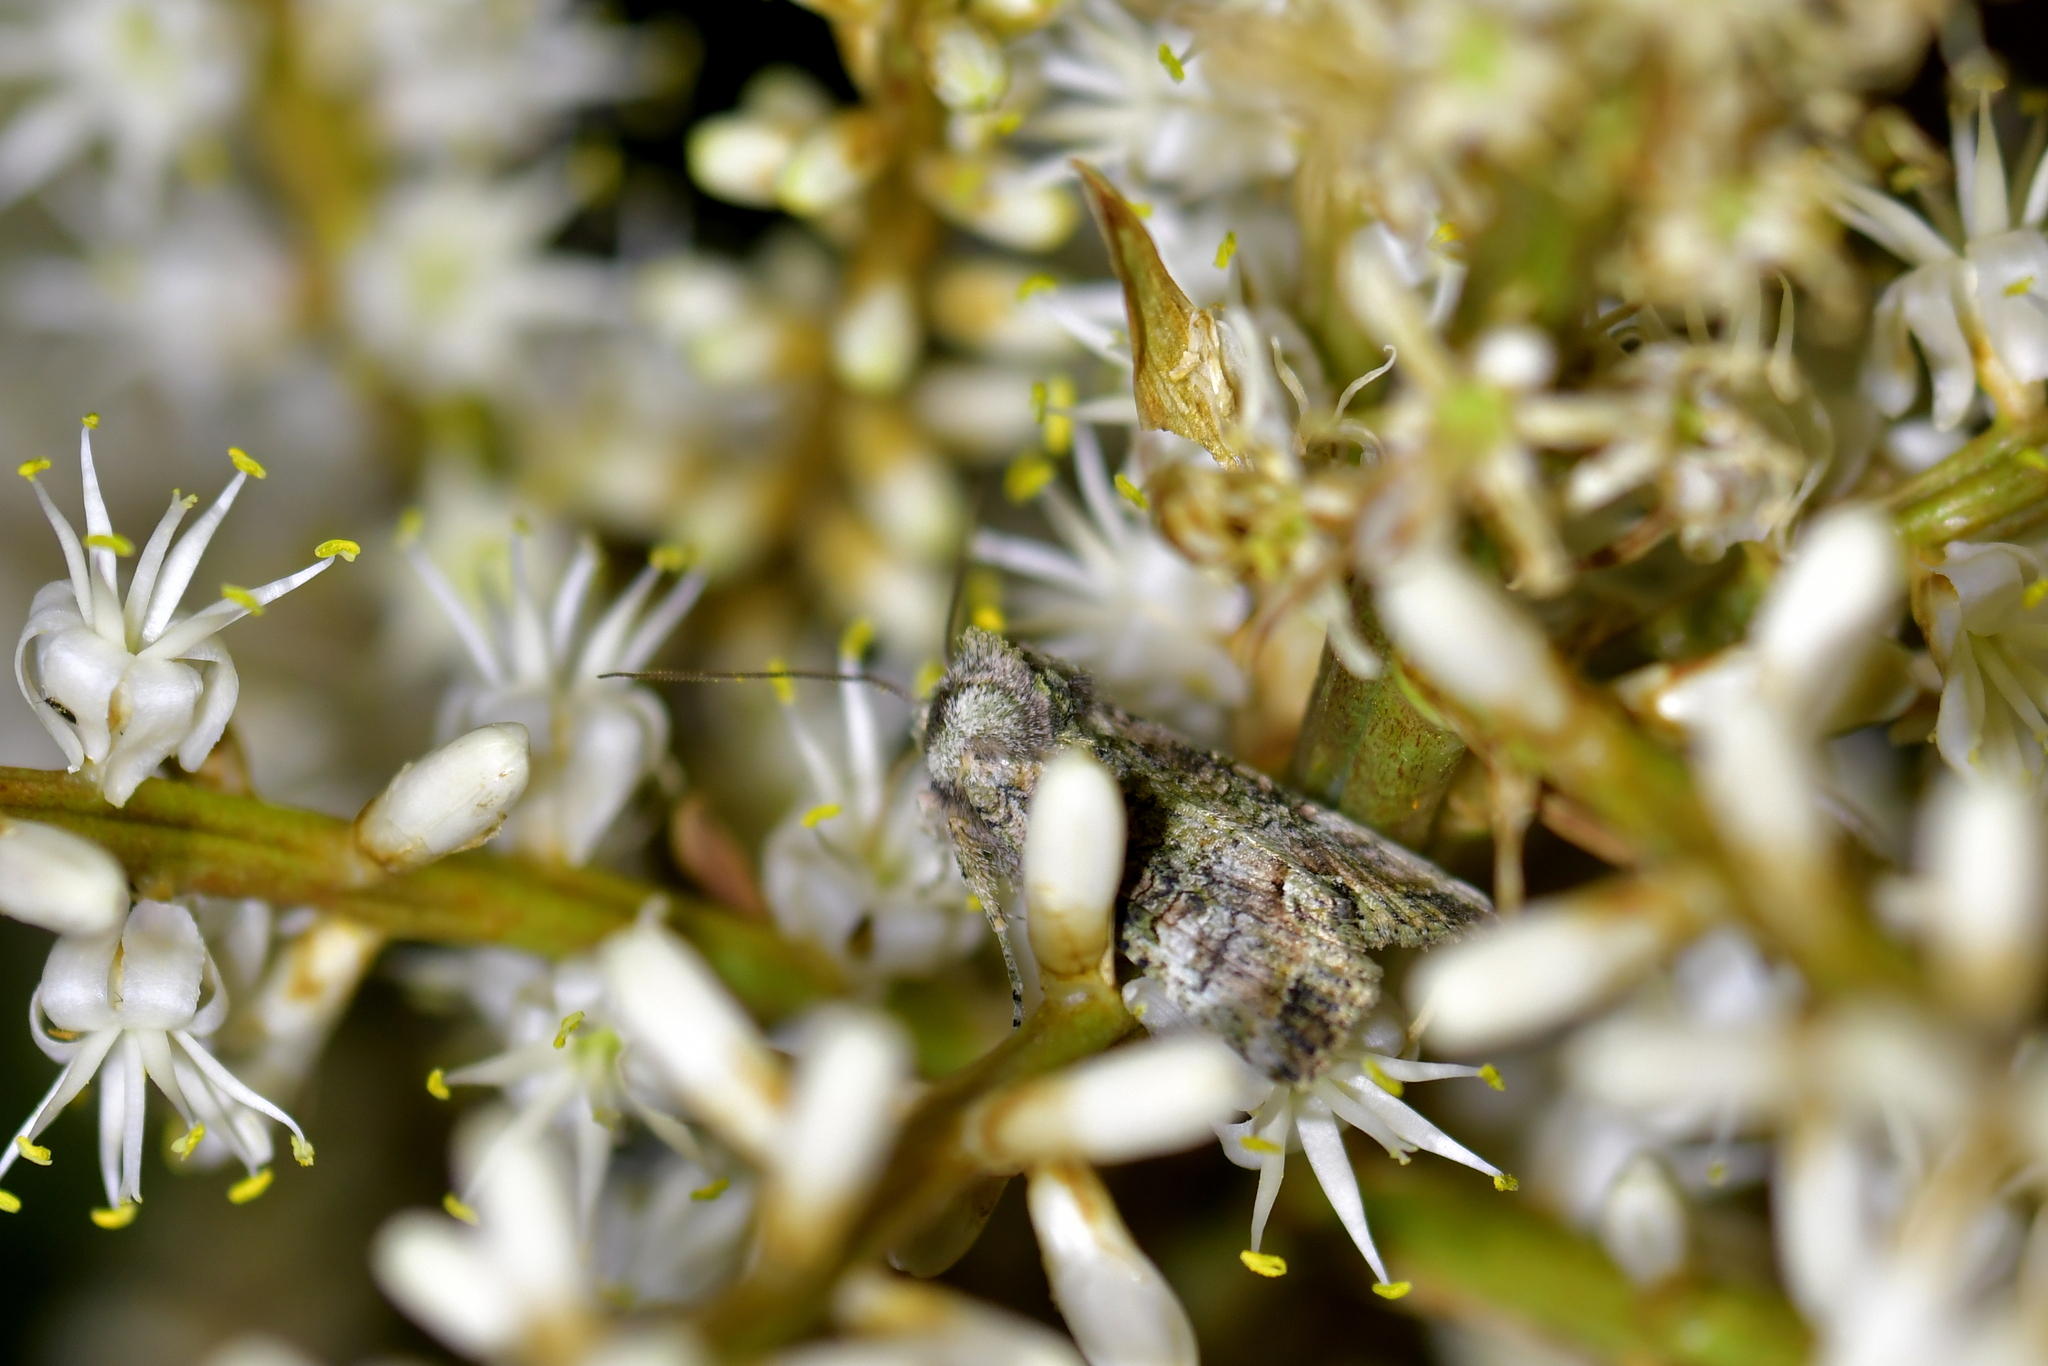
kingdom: Animalia
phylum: Arthropoda
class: Insecta
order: Lepidoptera
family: Noctuidae
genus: Meterana
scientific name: Meterana levis
